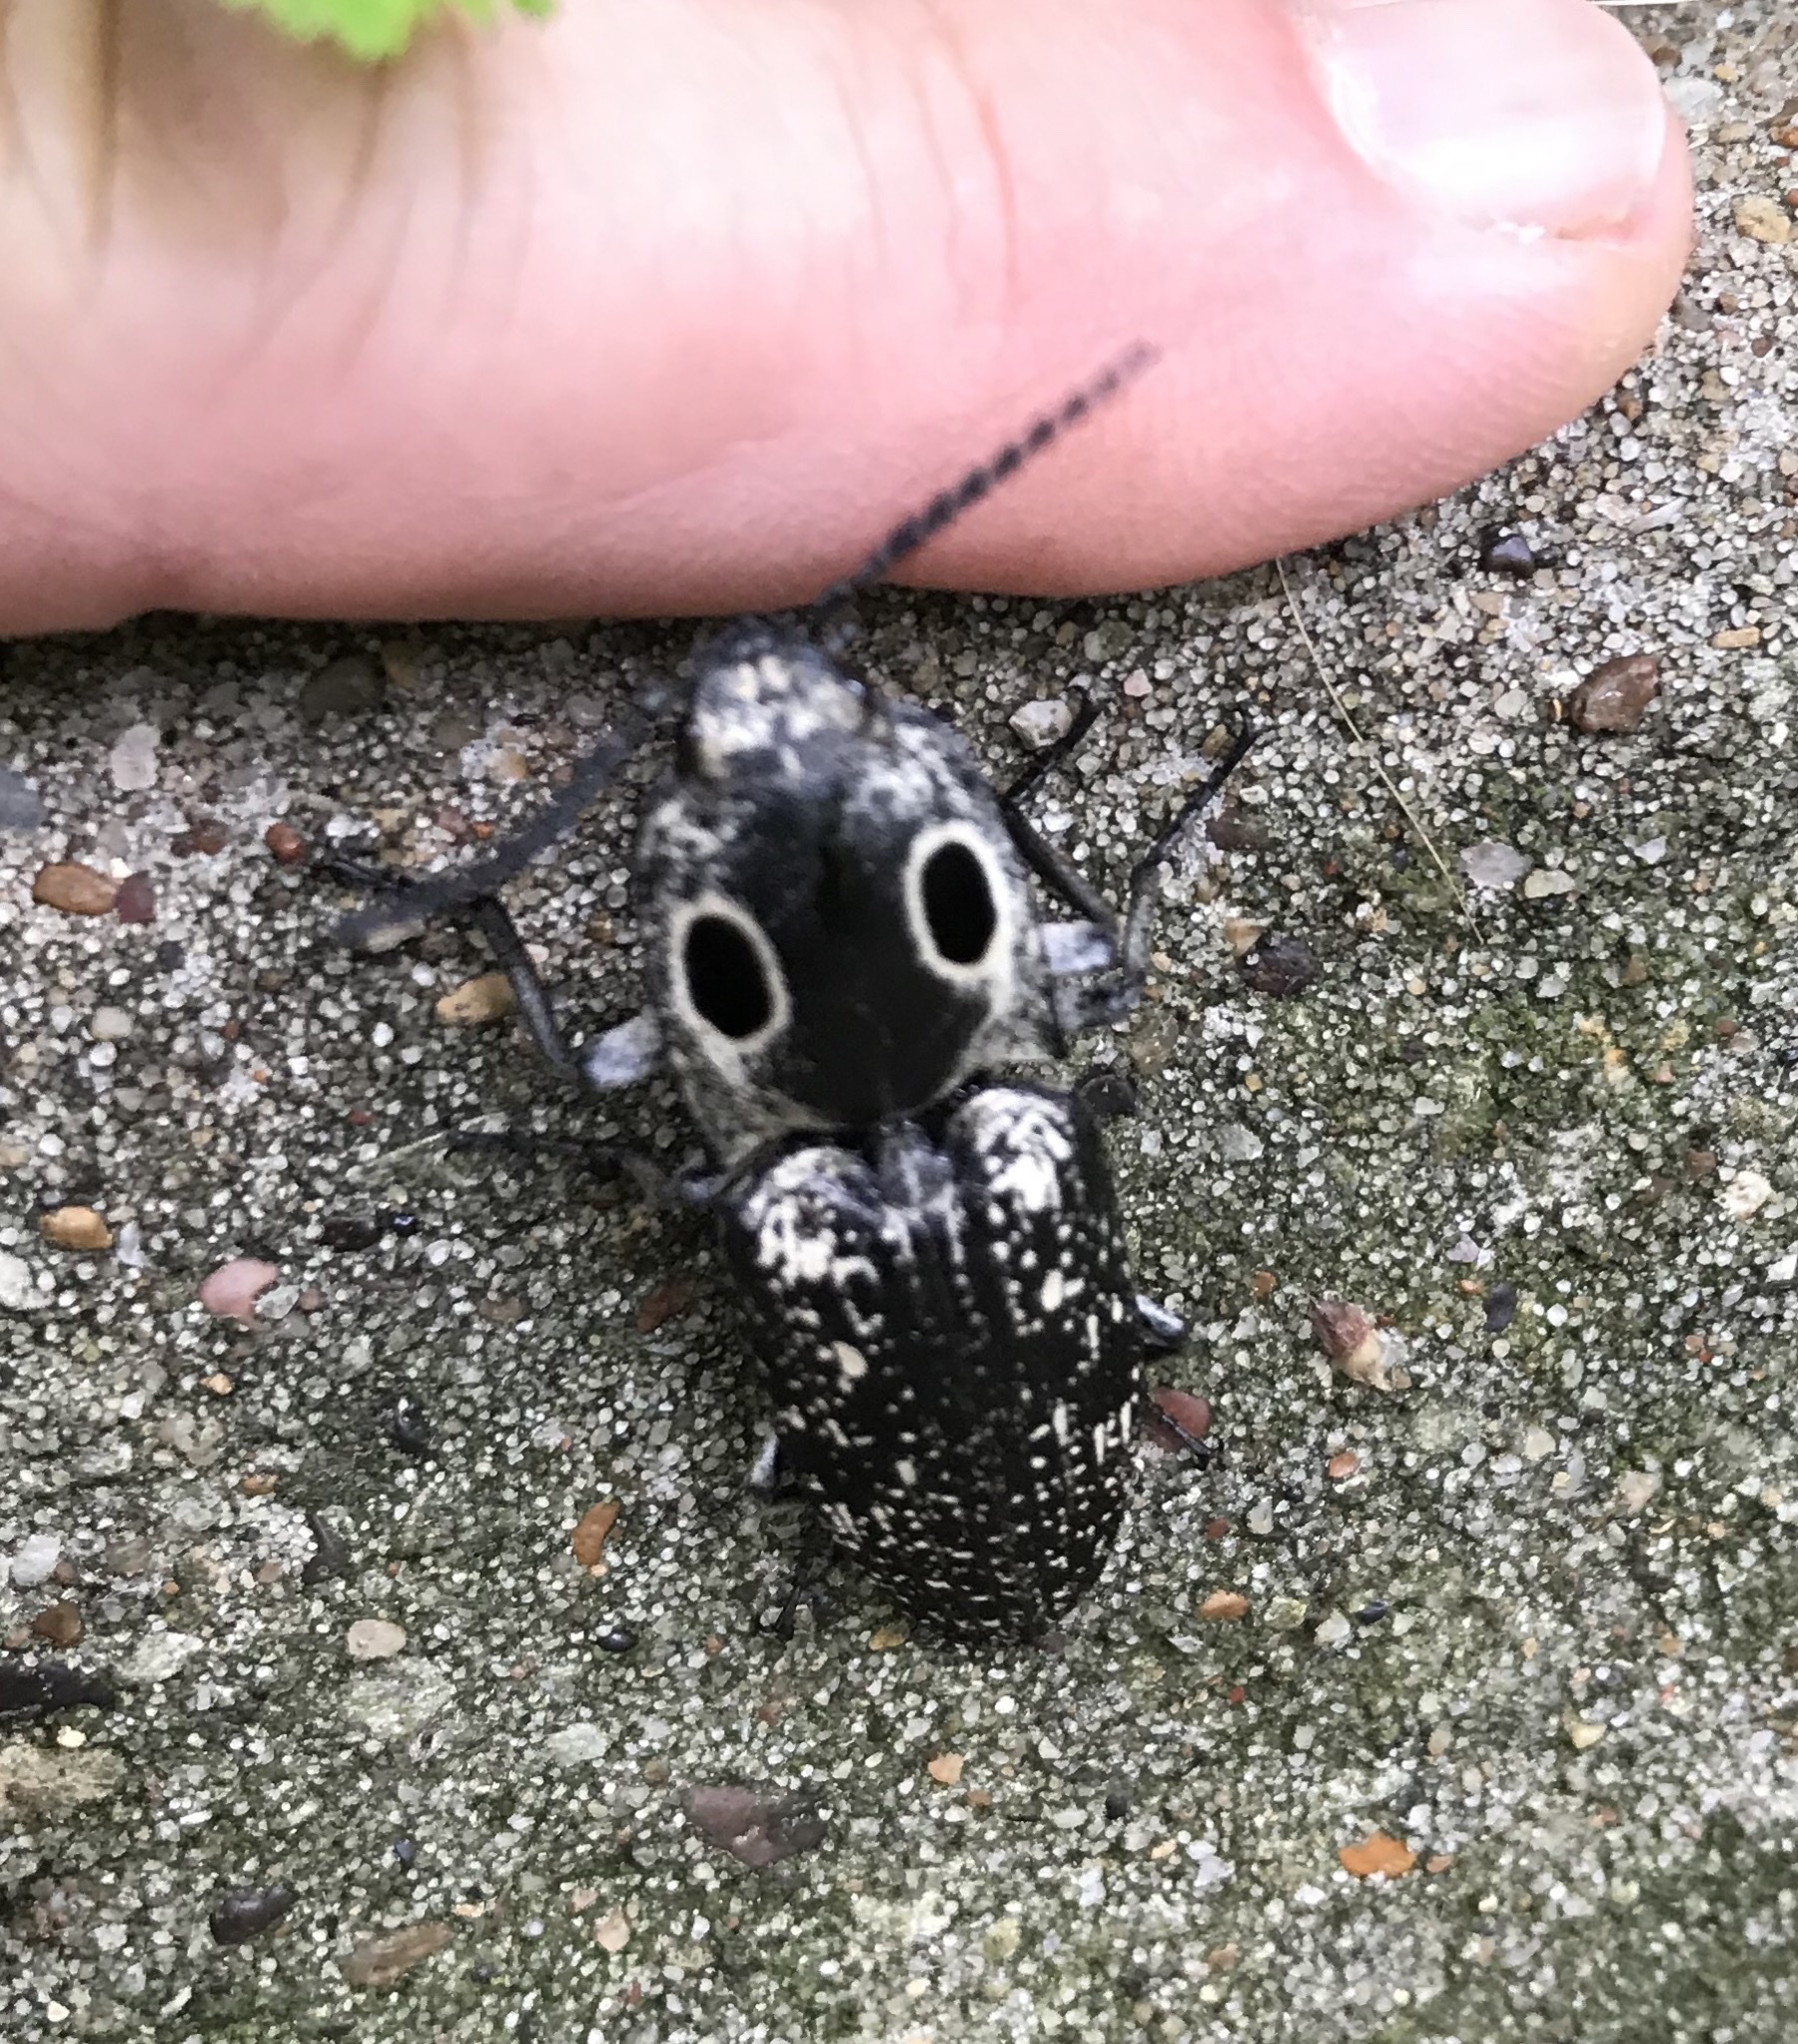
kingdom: Animalia
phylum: Arthropoda
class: Insecta
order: Coleoptera
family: Elateridae
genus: Alaus
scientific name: Alaus
